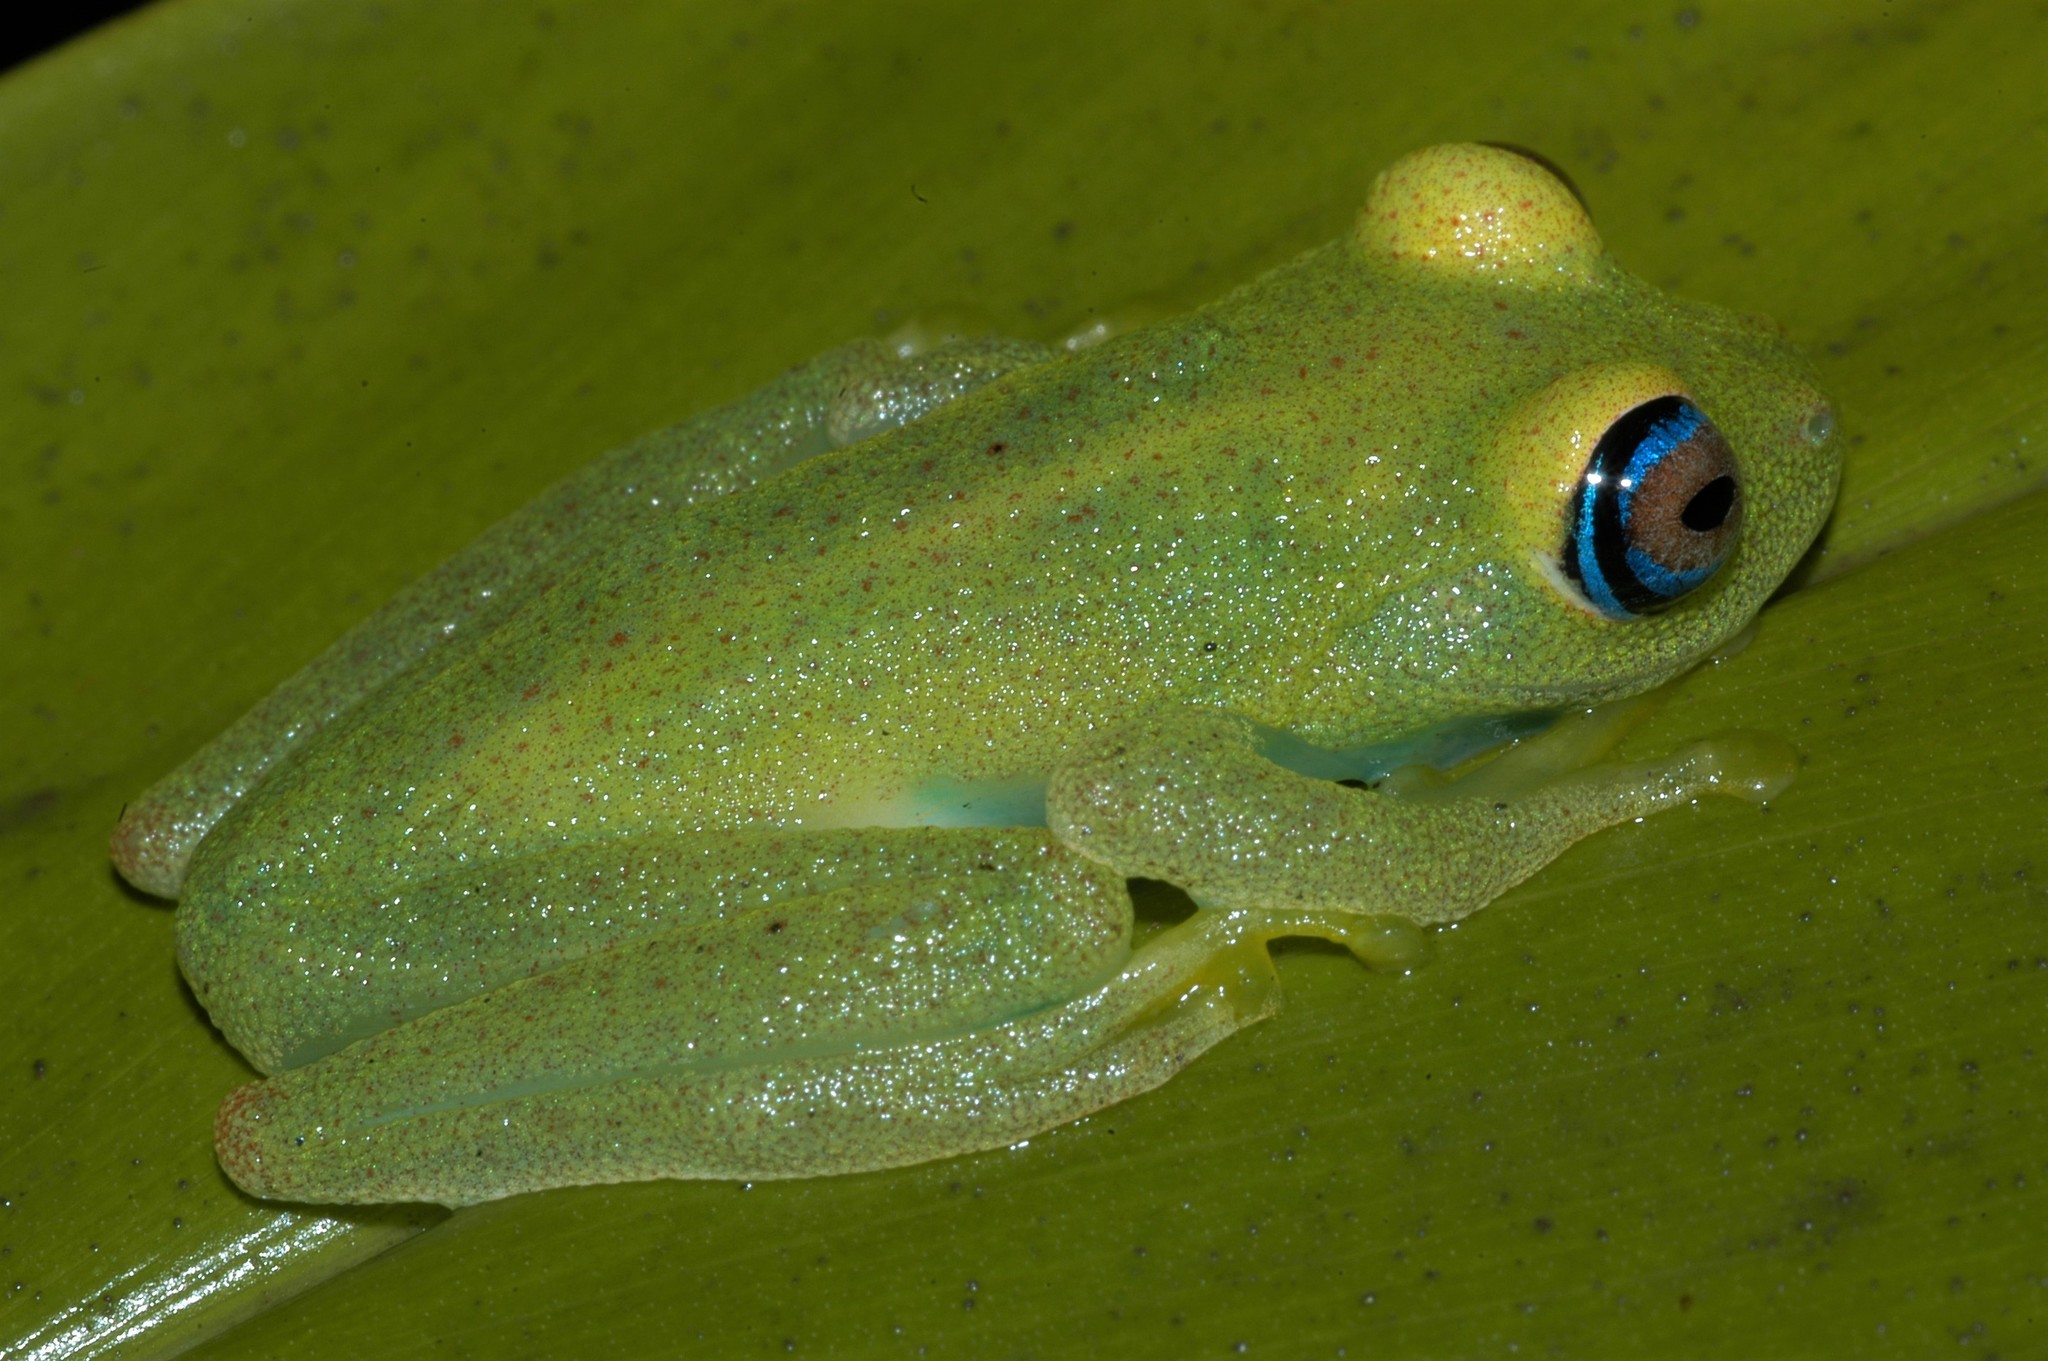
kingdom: Animalia
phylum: Chordata
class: Amphibia
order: Anura
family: Mantellidae
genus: Boophis
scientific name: Boophis viridis
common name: Green bright-eyed frog
